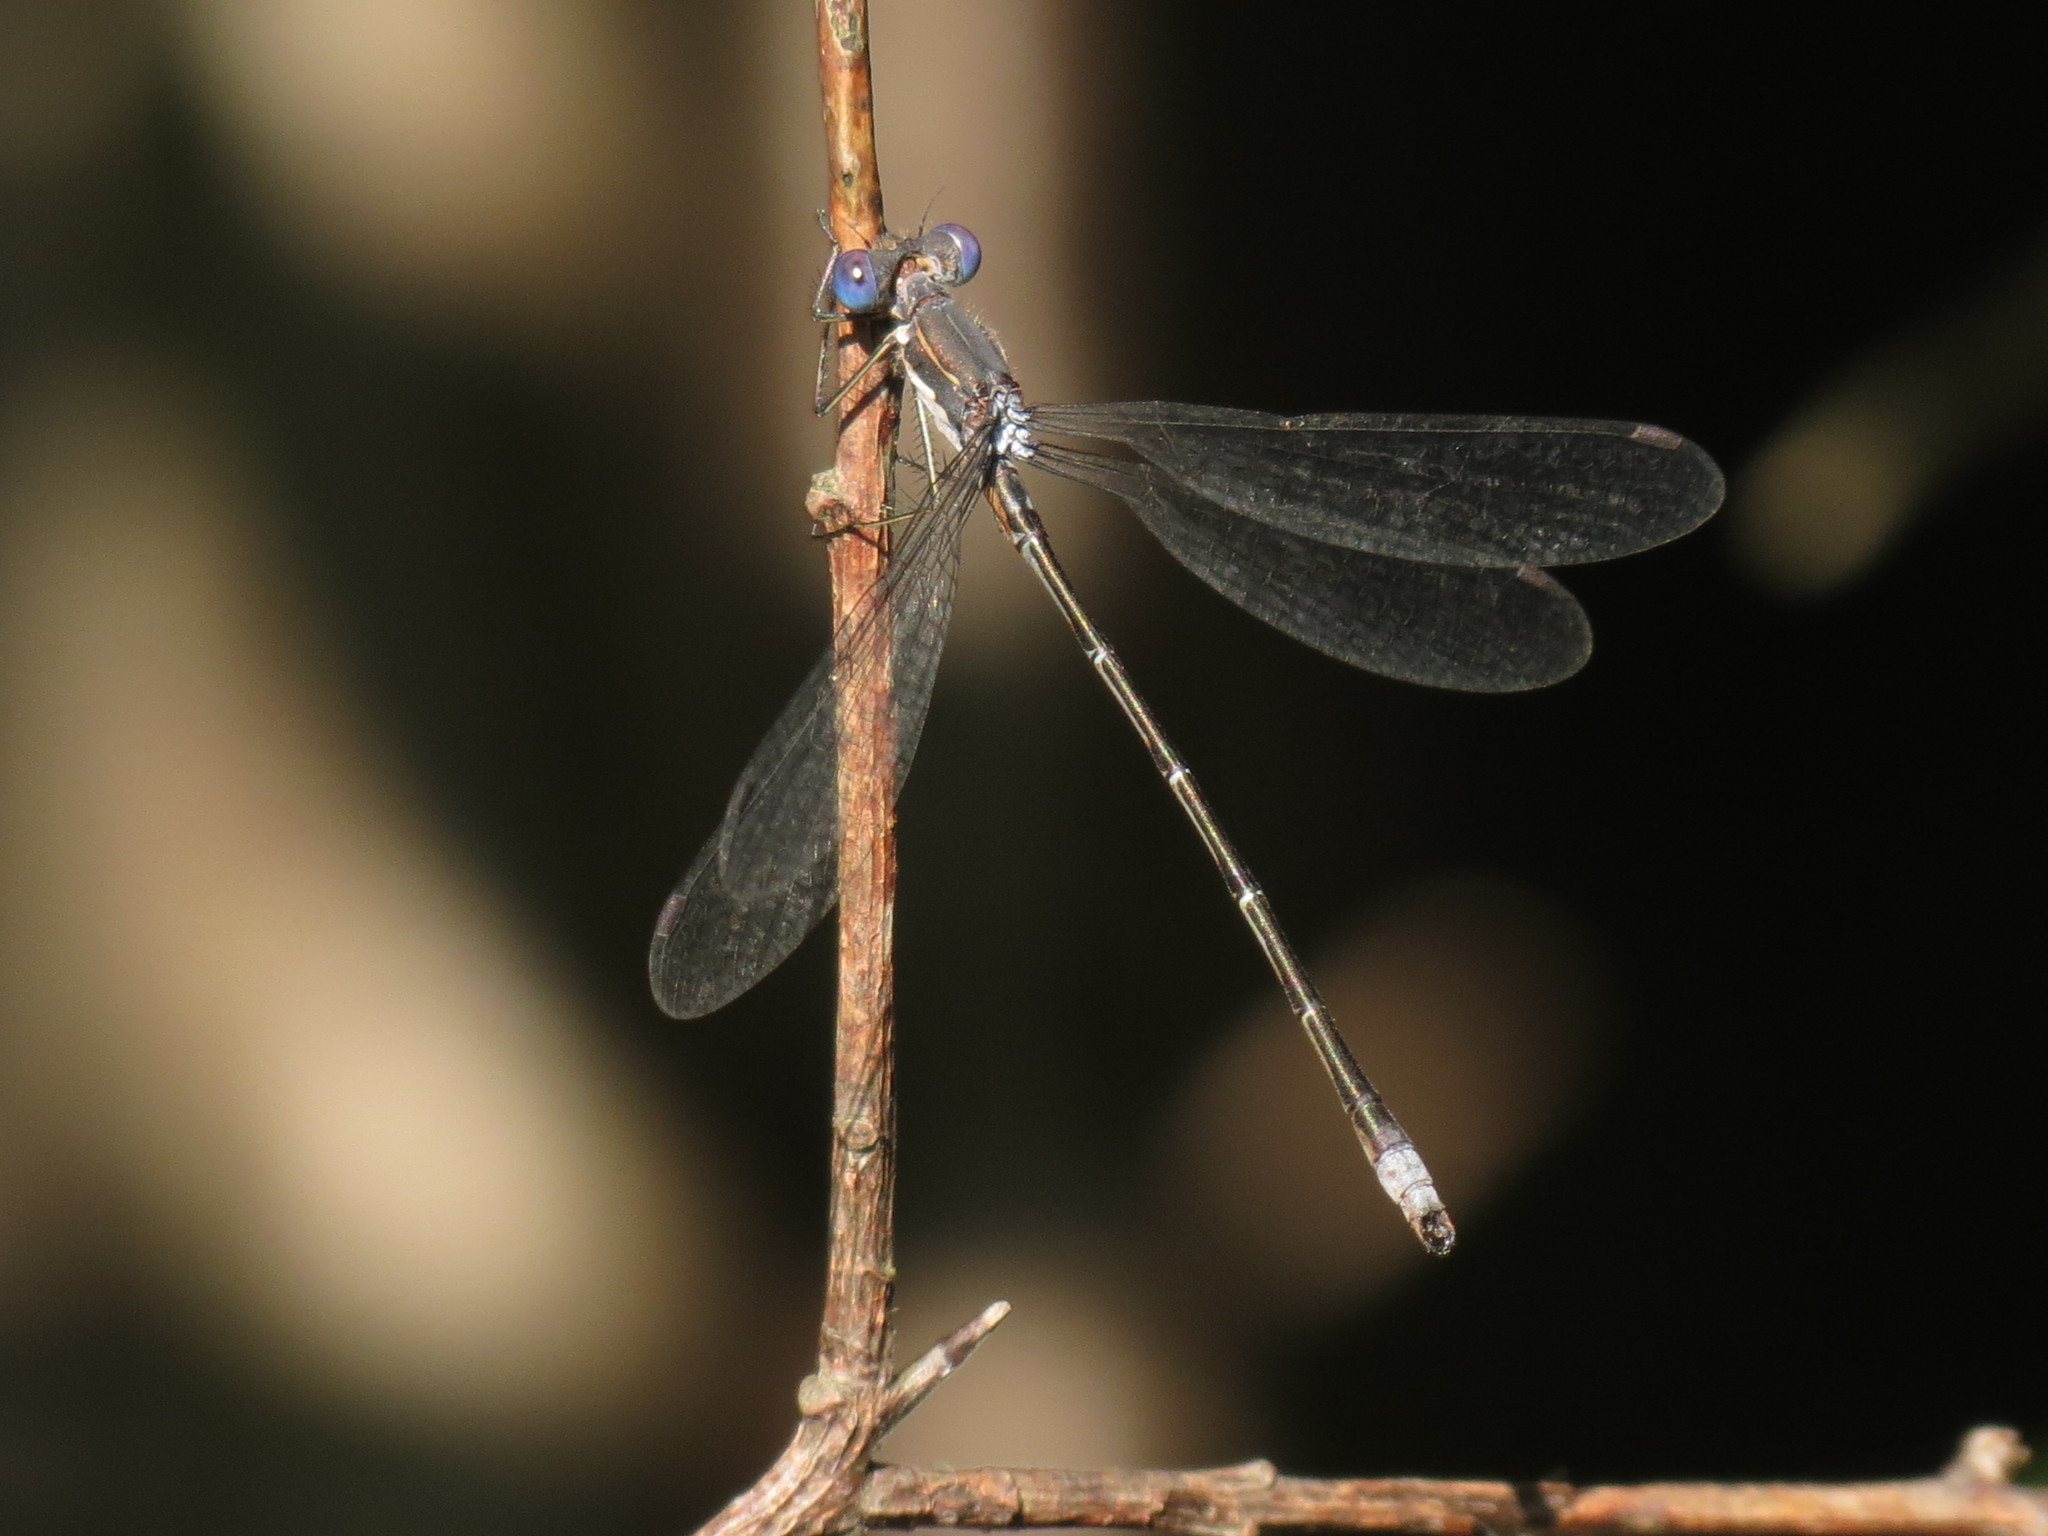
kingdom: Animalia
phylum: Arthropoda
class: Insecta
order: Odonata
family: Lestidae
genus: Lestes
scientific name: Lestes congener
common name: Spotted spreadwing
